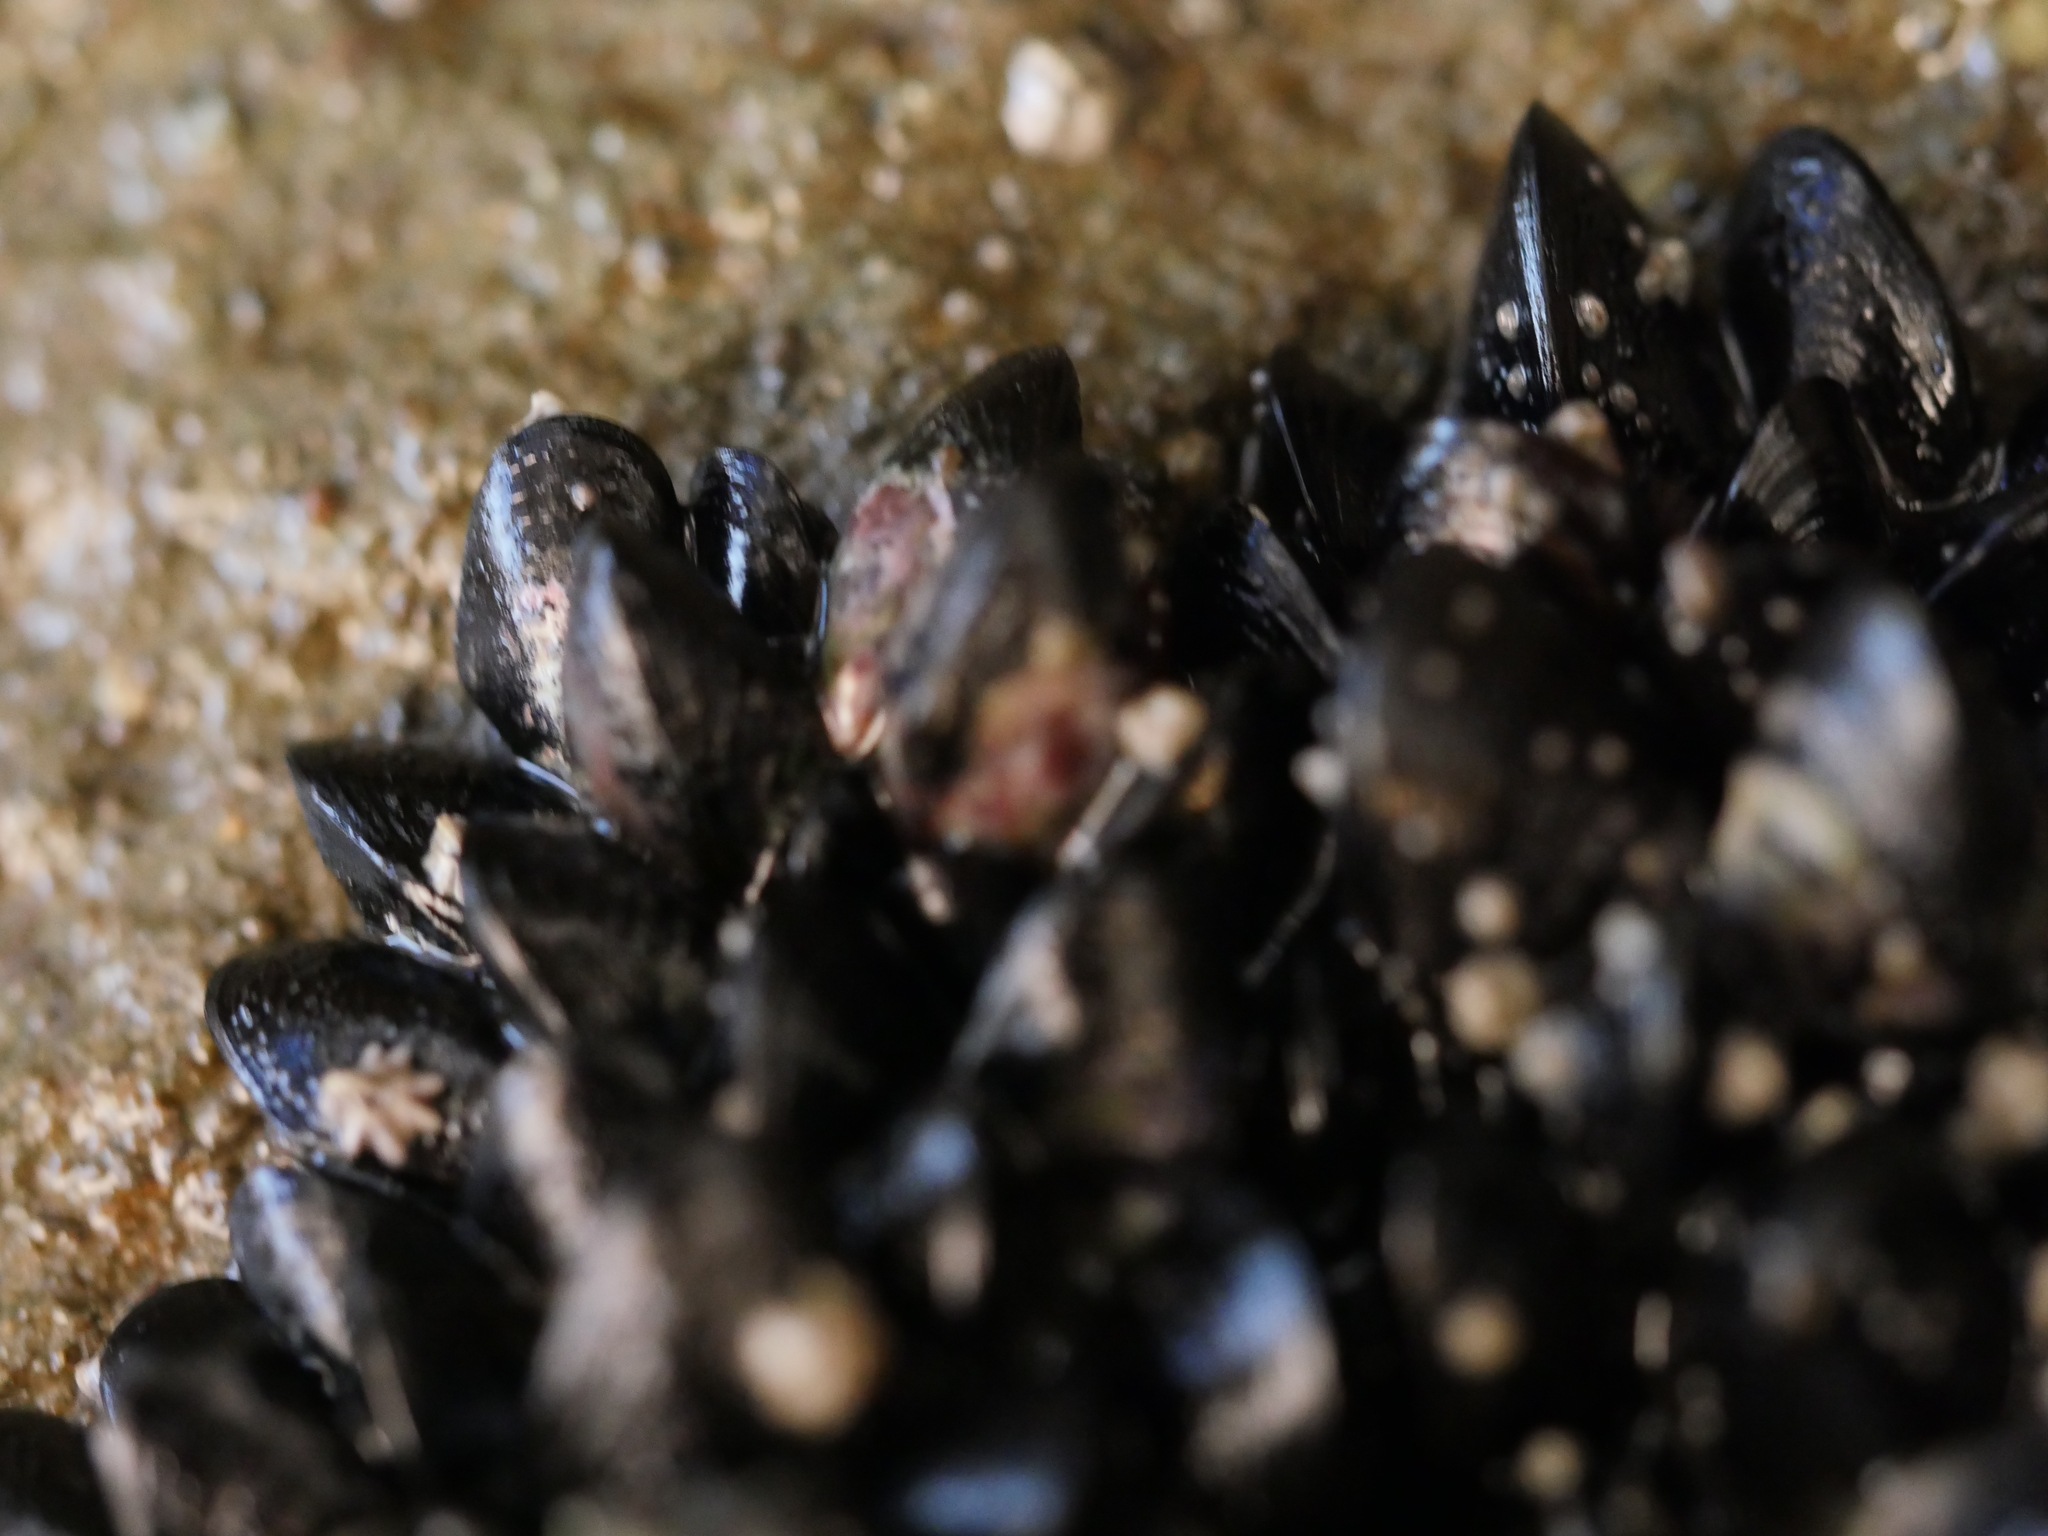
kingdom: Animalia
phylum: Mollusca
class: Bivalvia
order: Mytilida
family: Mytilidae
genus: Xenostrobus
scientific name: Xenostrobus neozelanicus
